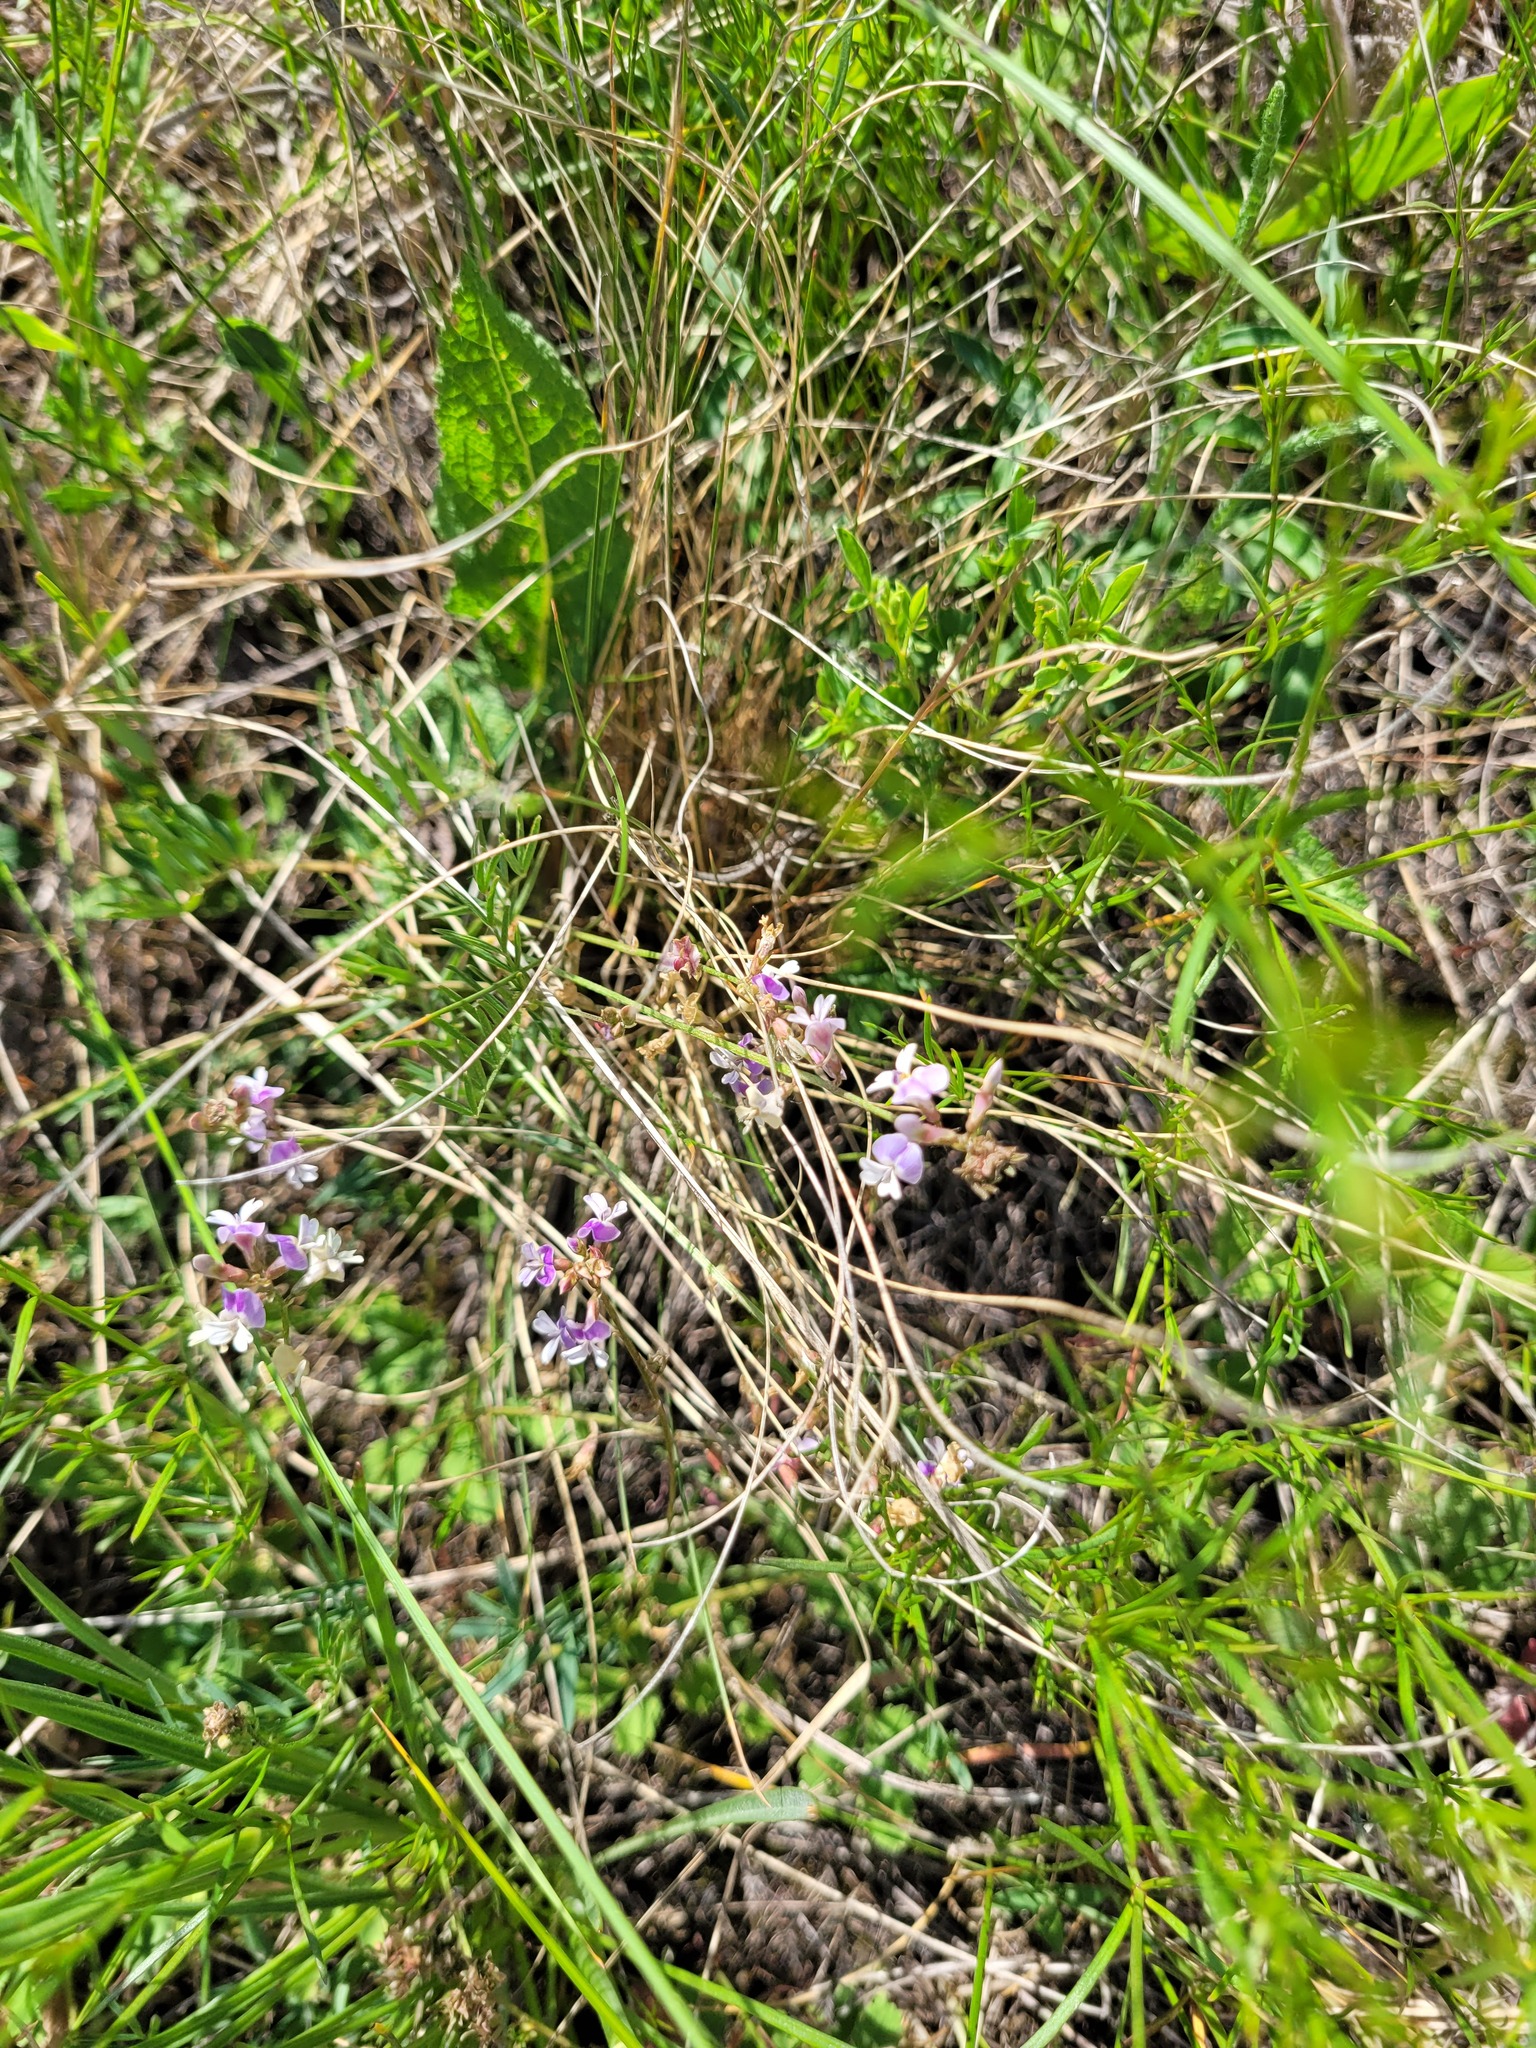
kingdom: Plantae
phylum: Tracheophyta
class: Magnoliopsida
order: Fabales
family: Fabaceae
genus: Astragalus
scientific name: Astragalus austriacus
